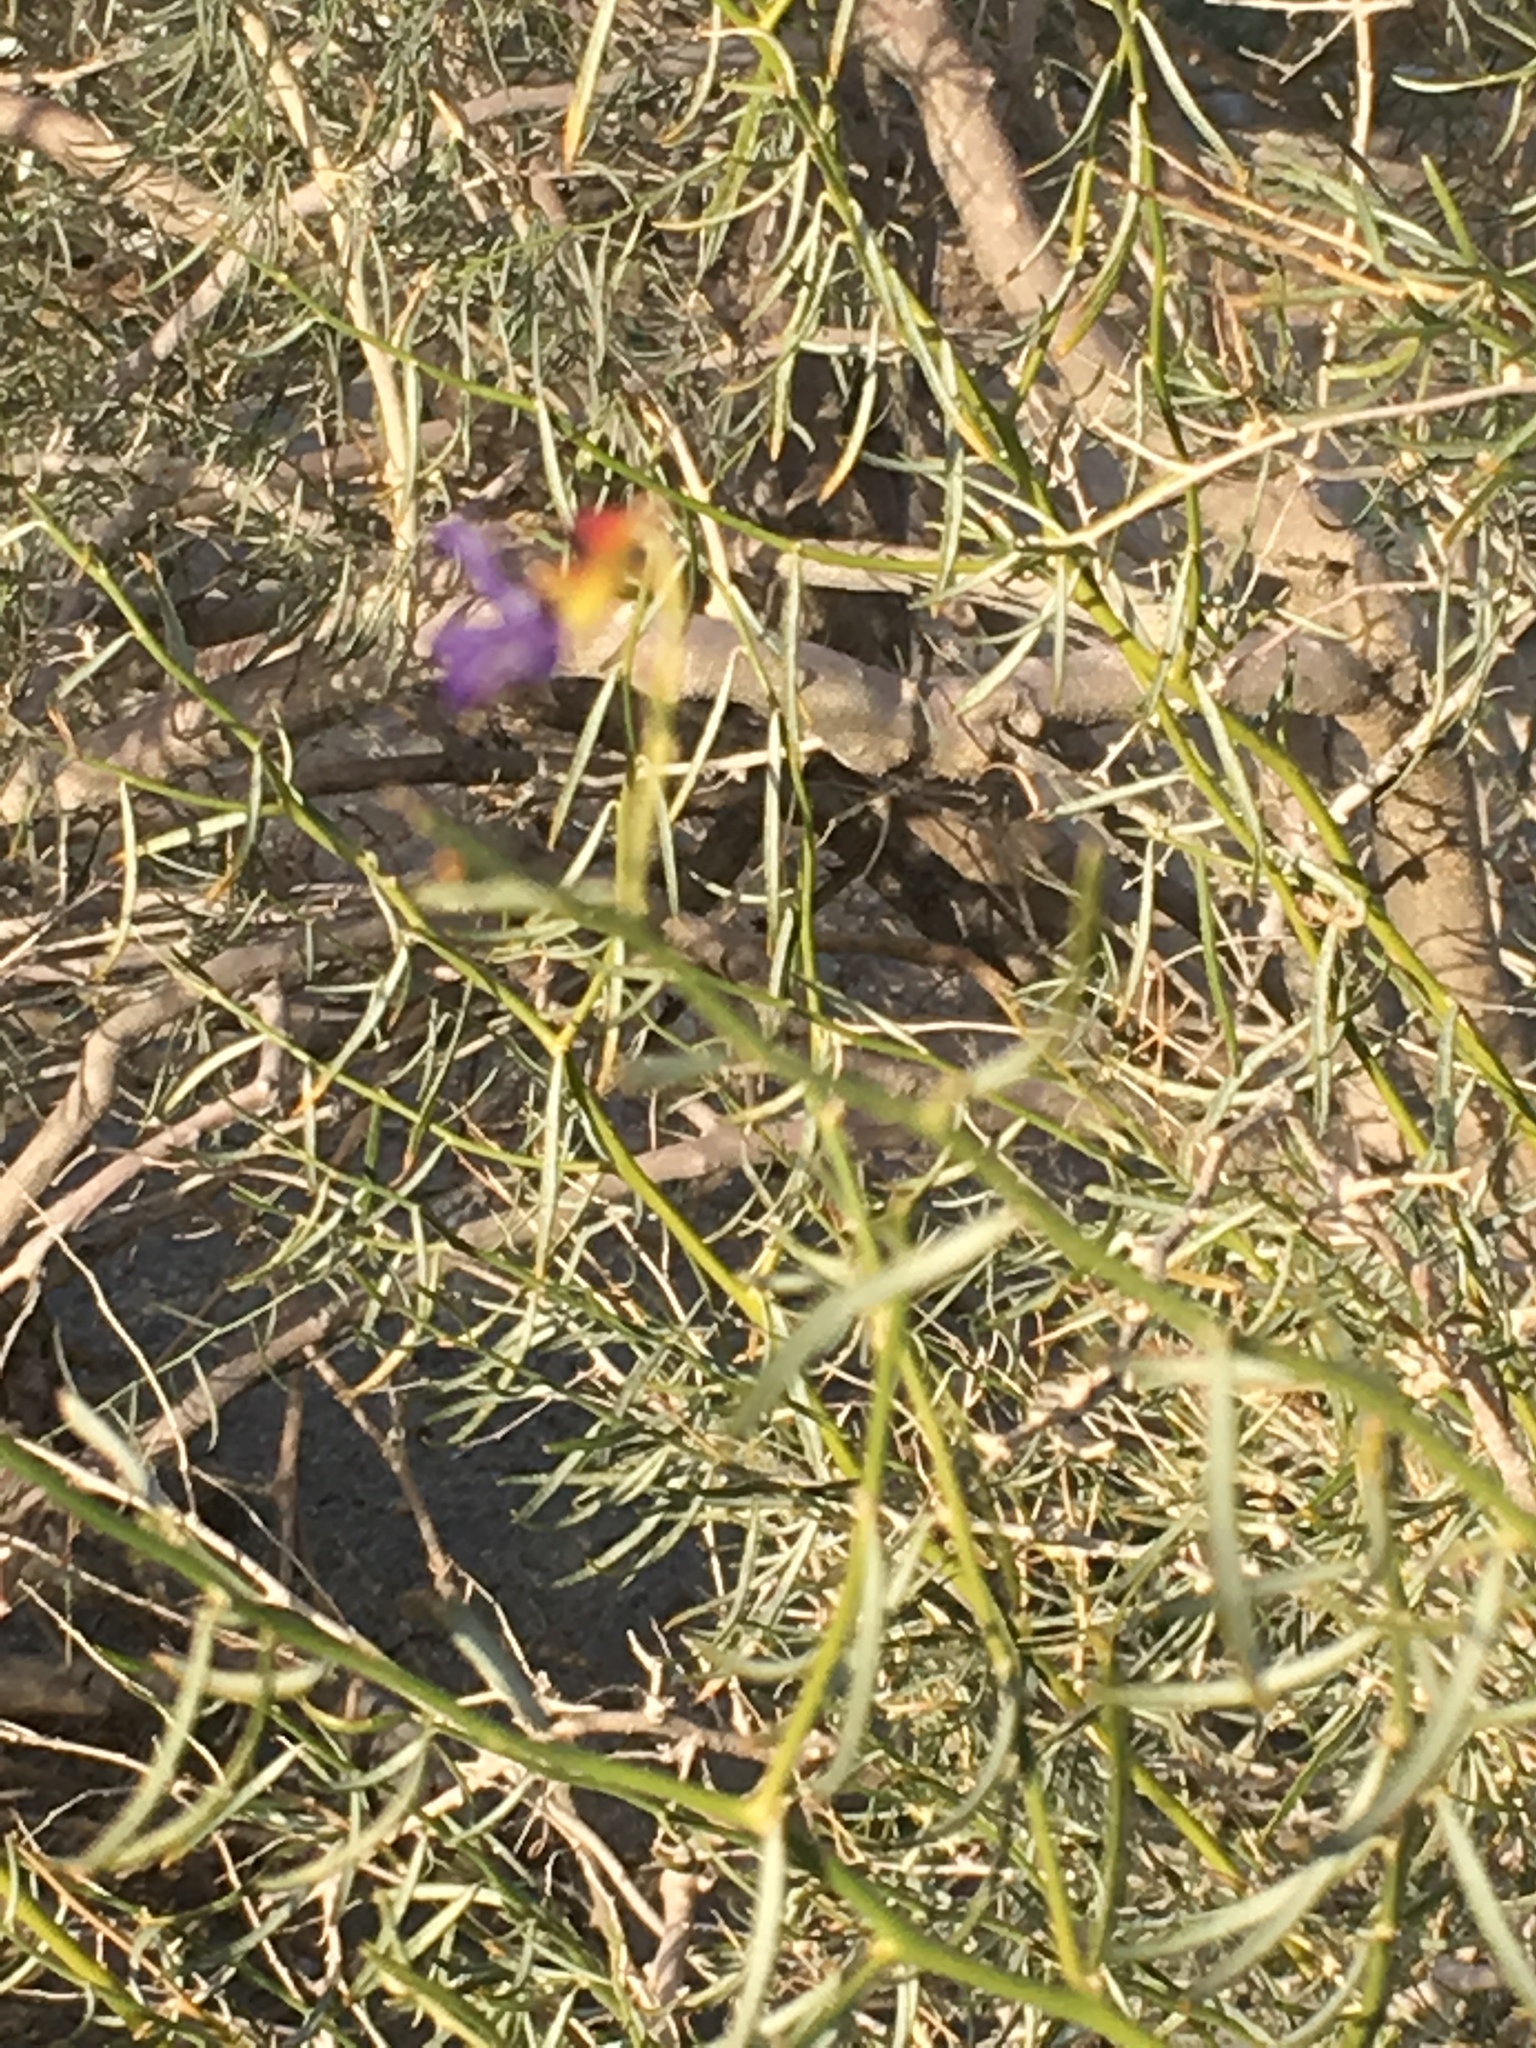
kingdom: Plantae
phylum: Tracheophyta
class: Magnoliopsida
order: Fabales
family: Fabaceae
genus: Psorothamnus
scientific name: Psorothamnus schottii
